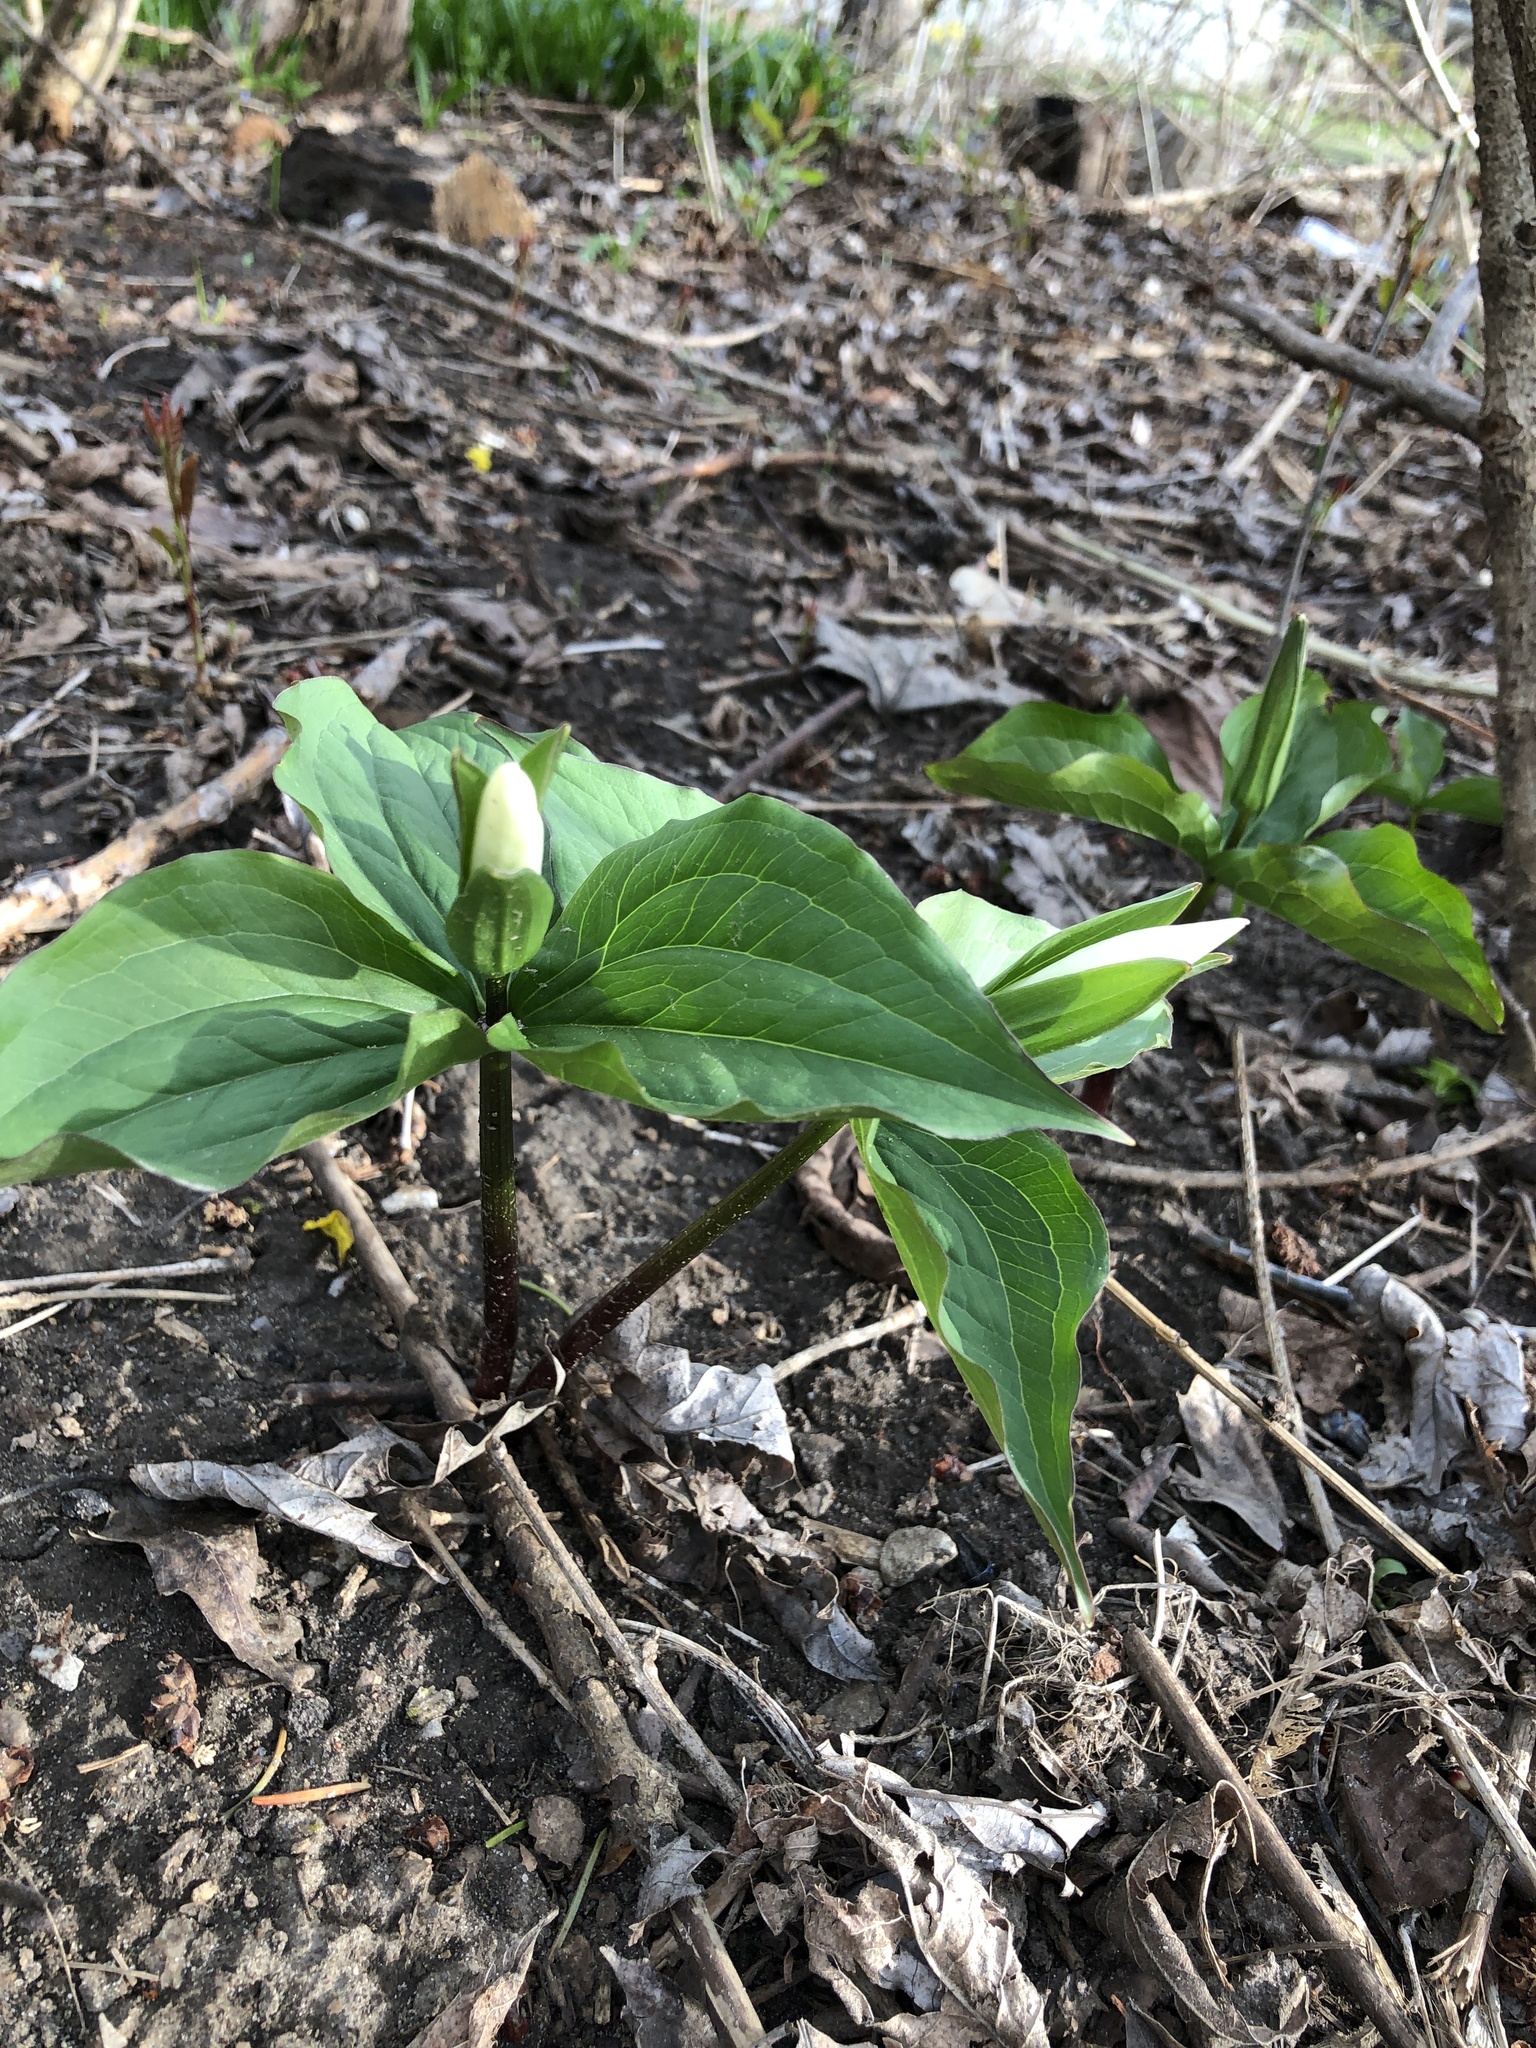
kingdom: Plantae
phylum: Tracheophyta
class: Liliopsida
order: Liliales
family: Melanthiaceae
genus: Trillium
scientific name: Trillium grandiflorum
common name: Great white trillium
